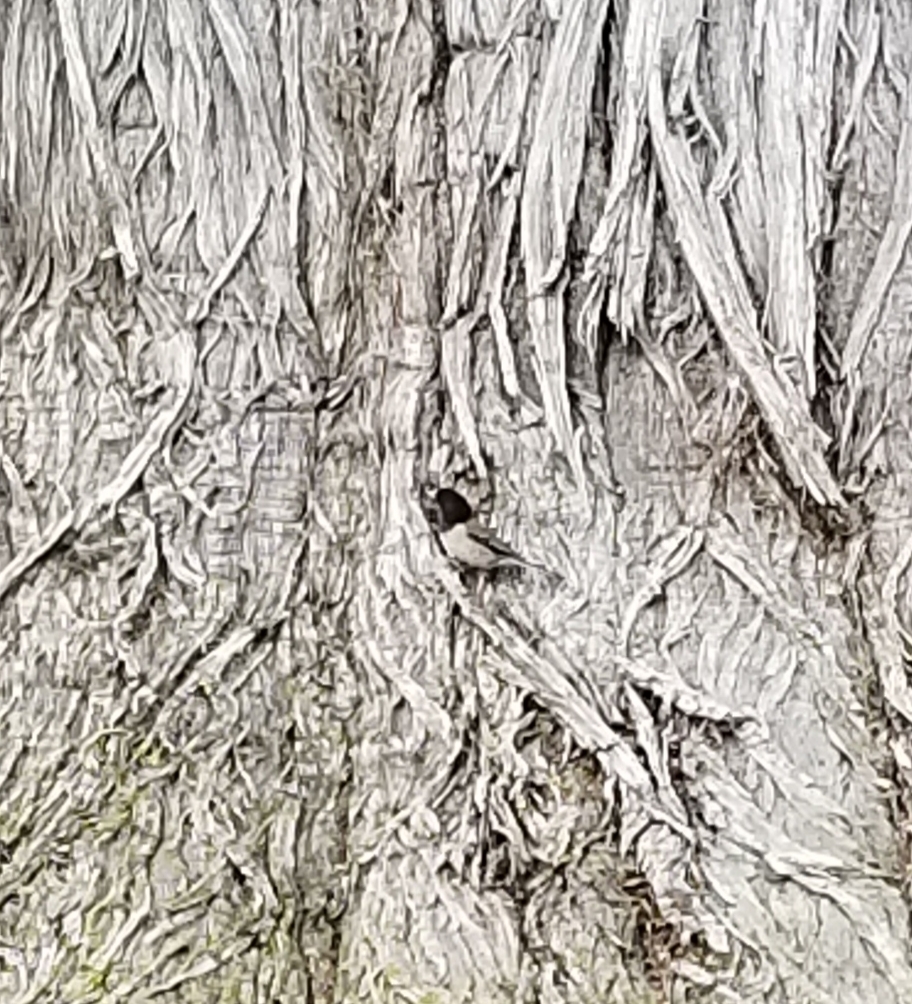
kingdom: Animalia
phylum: Chordata
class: Aves
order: Passeriformes
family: Passerellidae
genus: Junco
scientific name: Junco hyemalis
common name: Dark-eyed junco
